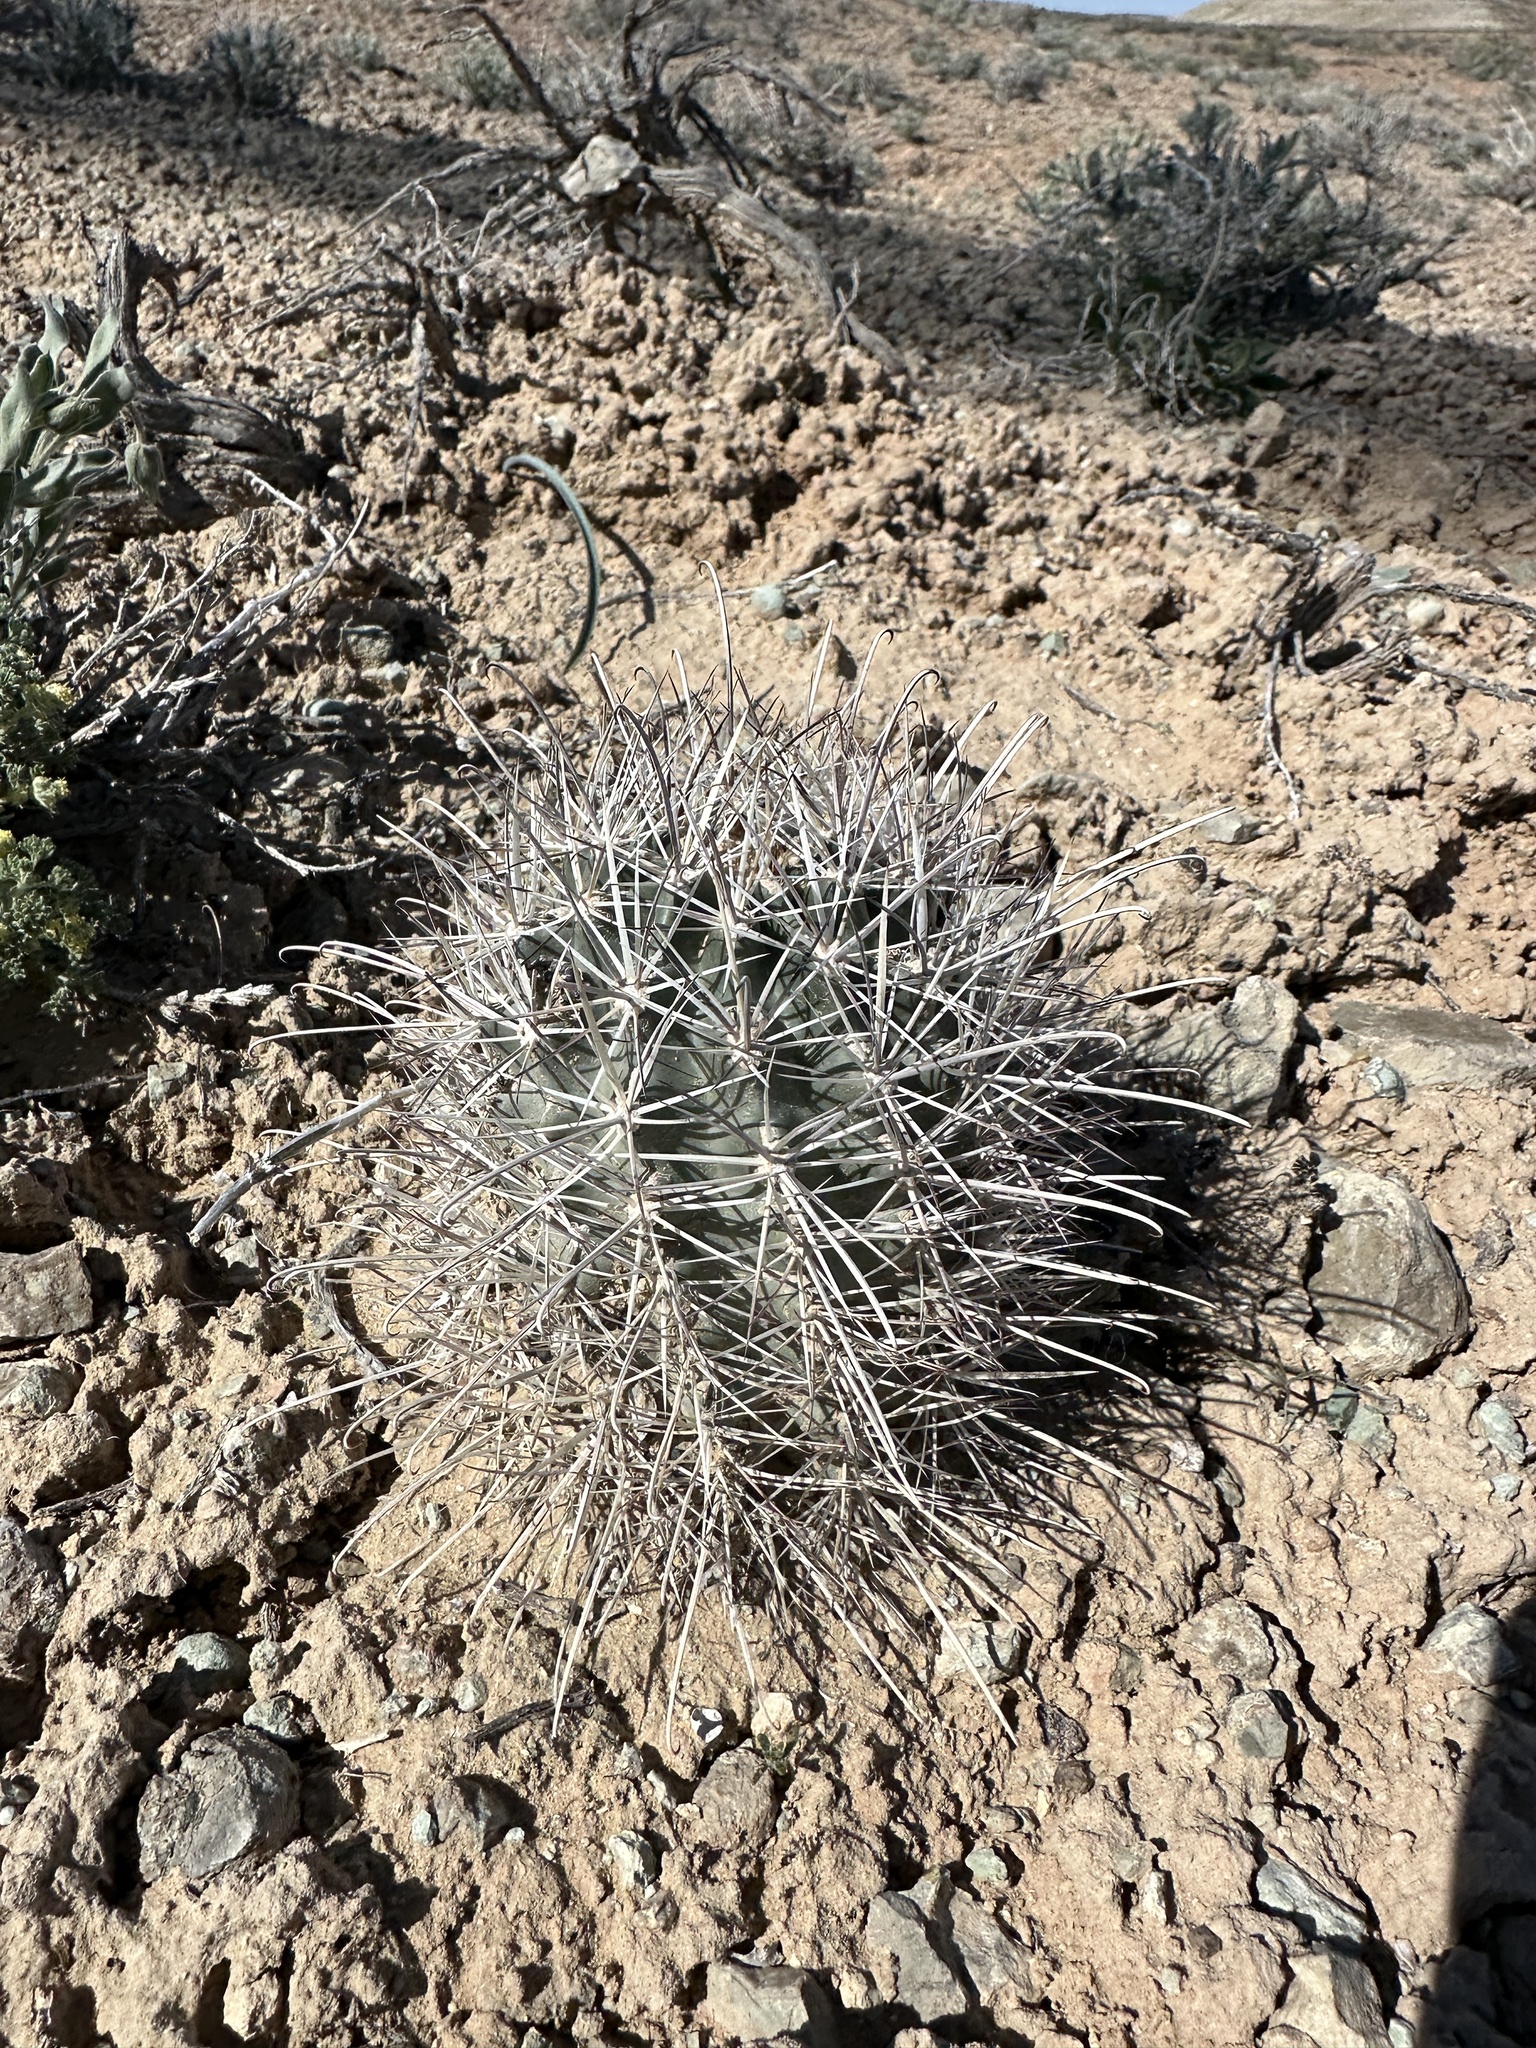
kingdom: Plantae
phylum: Tracheophyta
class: Magnoliopsida
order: Caryophyllales
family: Cactaceae
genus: Sclerocactus
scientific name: Sclerocactus parviflorus
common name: Small-flower fishhook cactus
